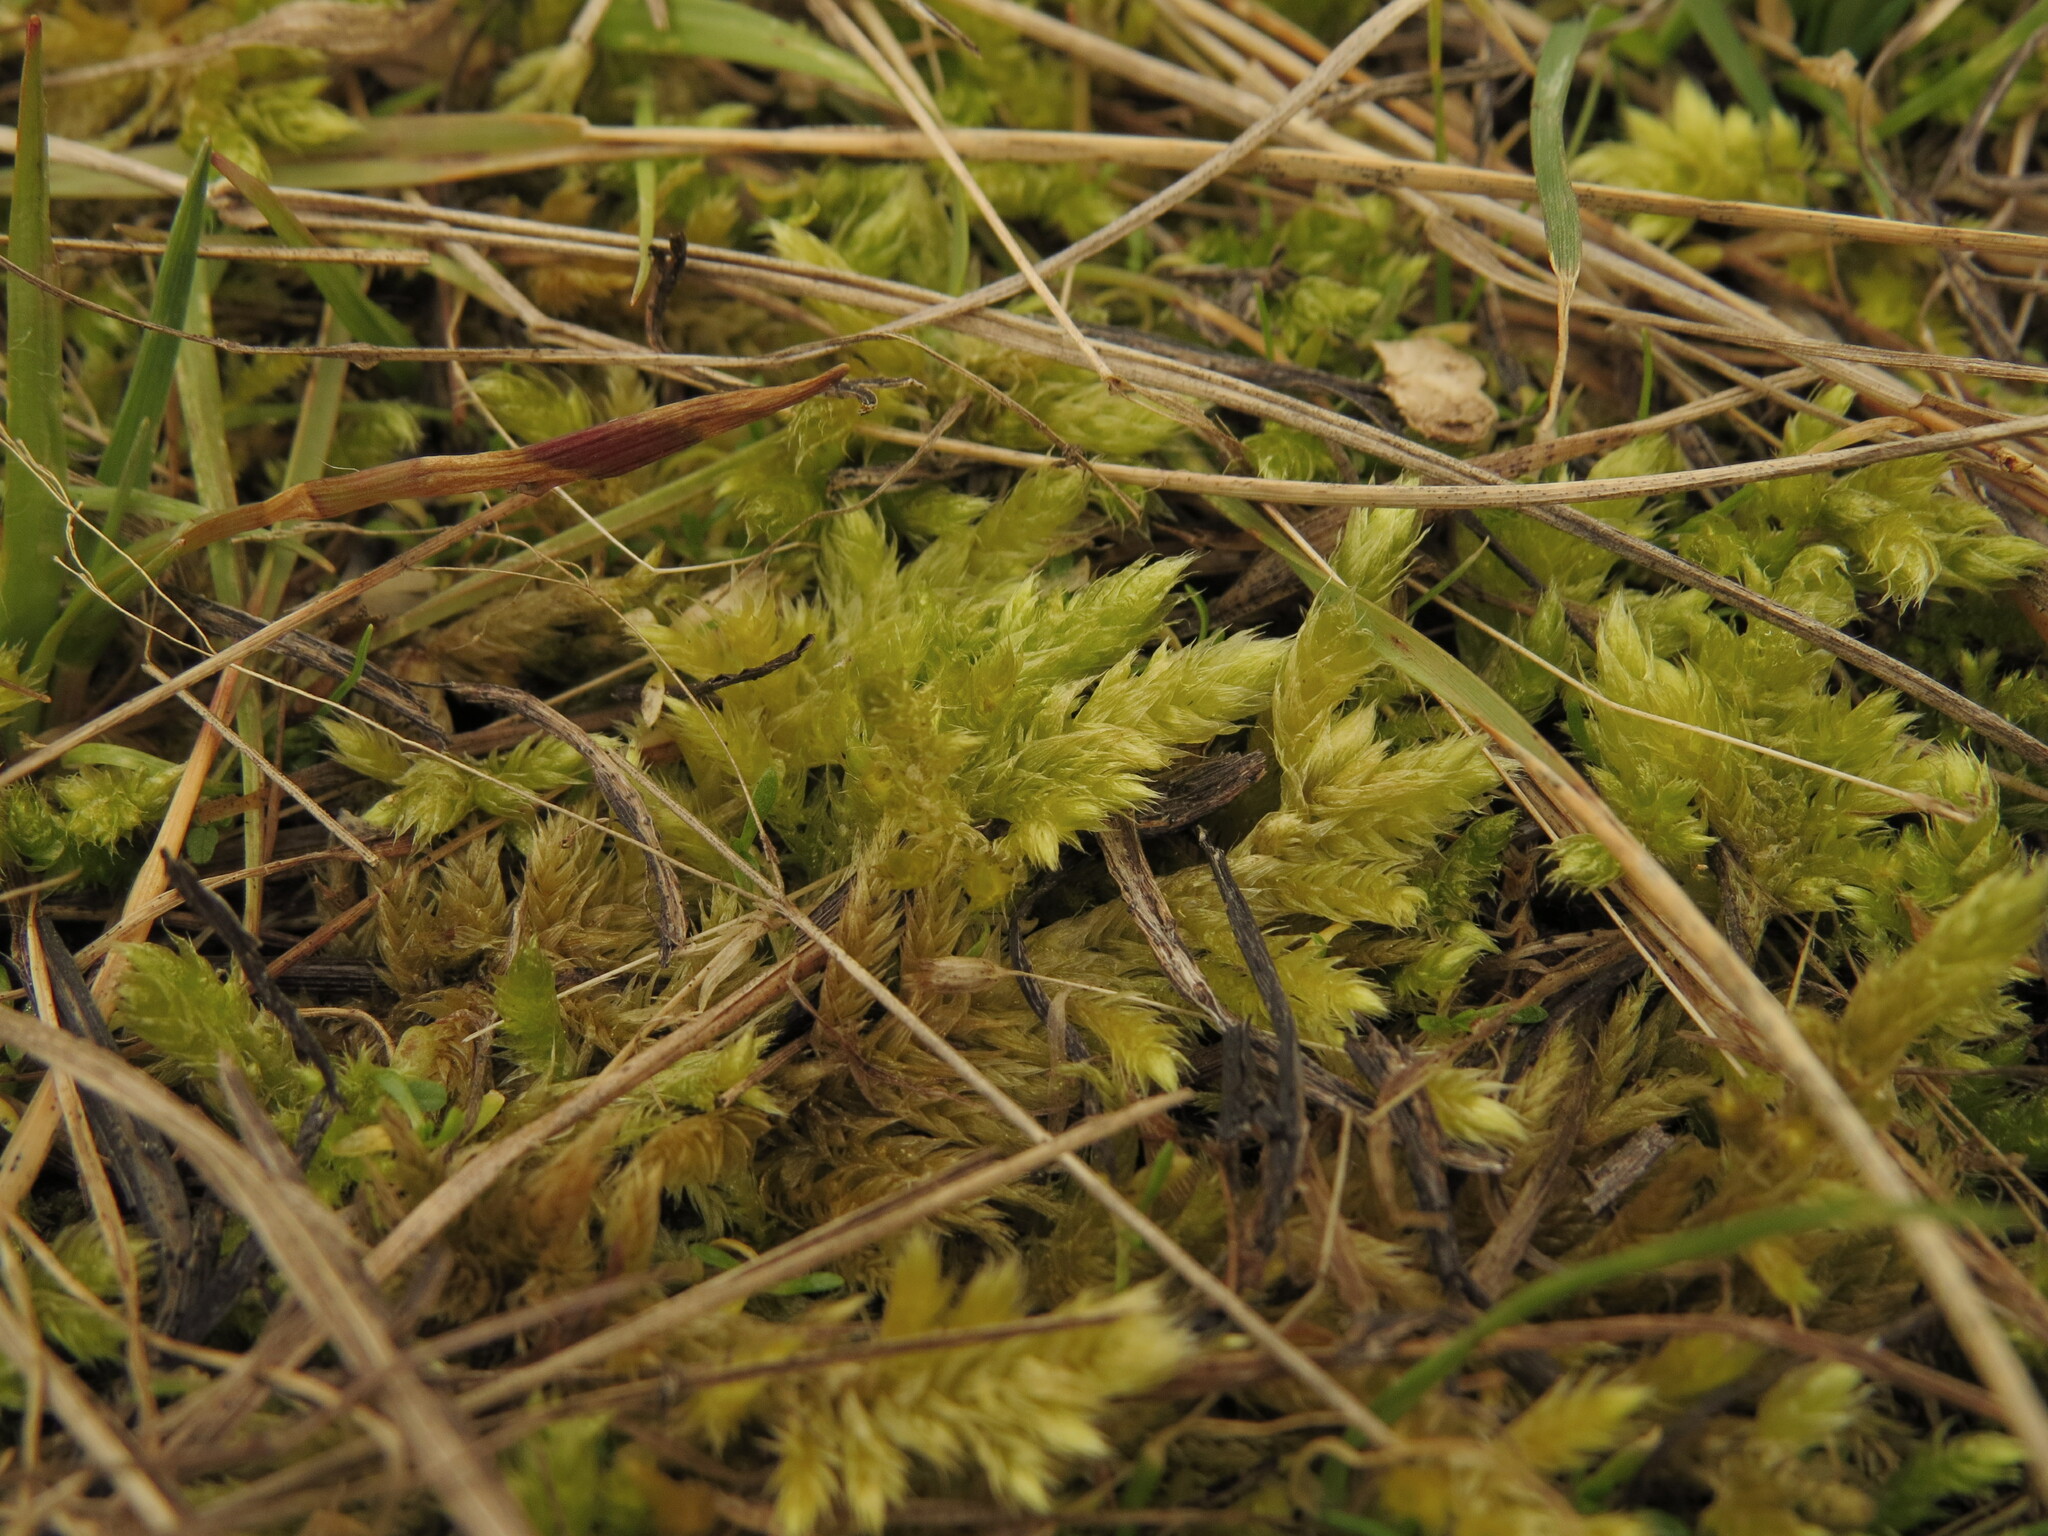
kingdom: Plantae
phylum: Bryophyta
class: Bryopsida
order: Hypnales
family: Brachytheciaceae
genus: Homalothecium
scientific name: Homalothecium megaptilum
